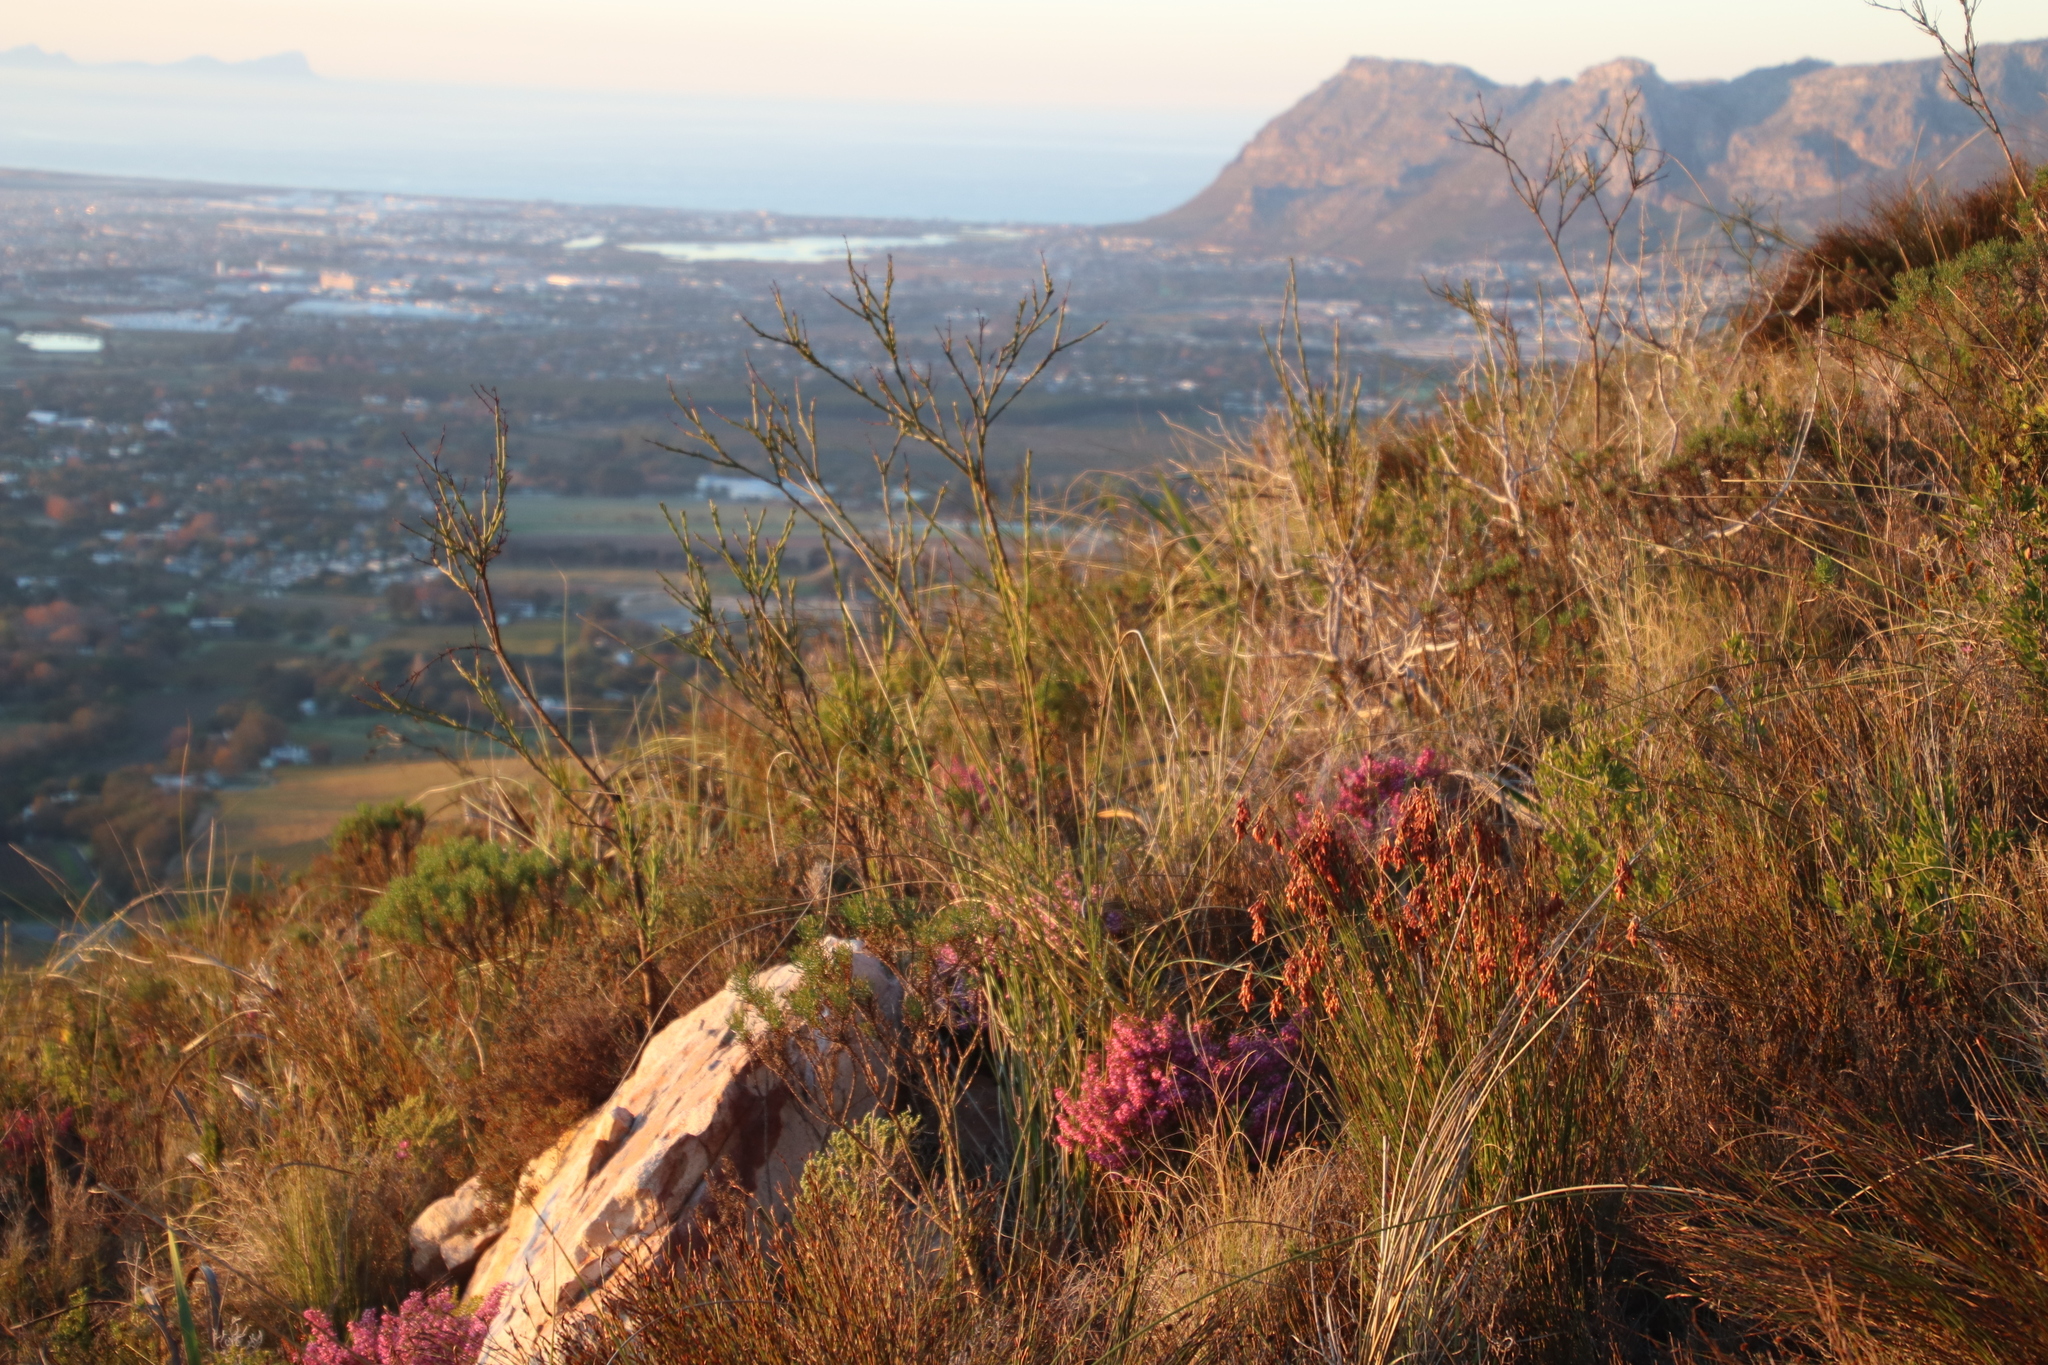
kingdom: Plantae
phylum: Tracheophyta
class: Magnoliopsida
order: Santalales
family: Thesiaceae
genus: Thesium
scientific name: Thesium strictum
